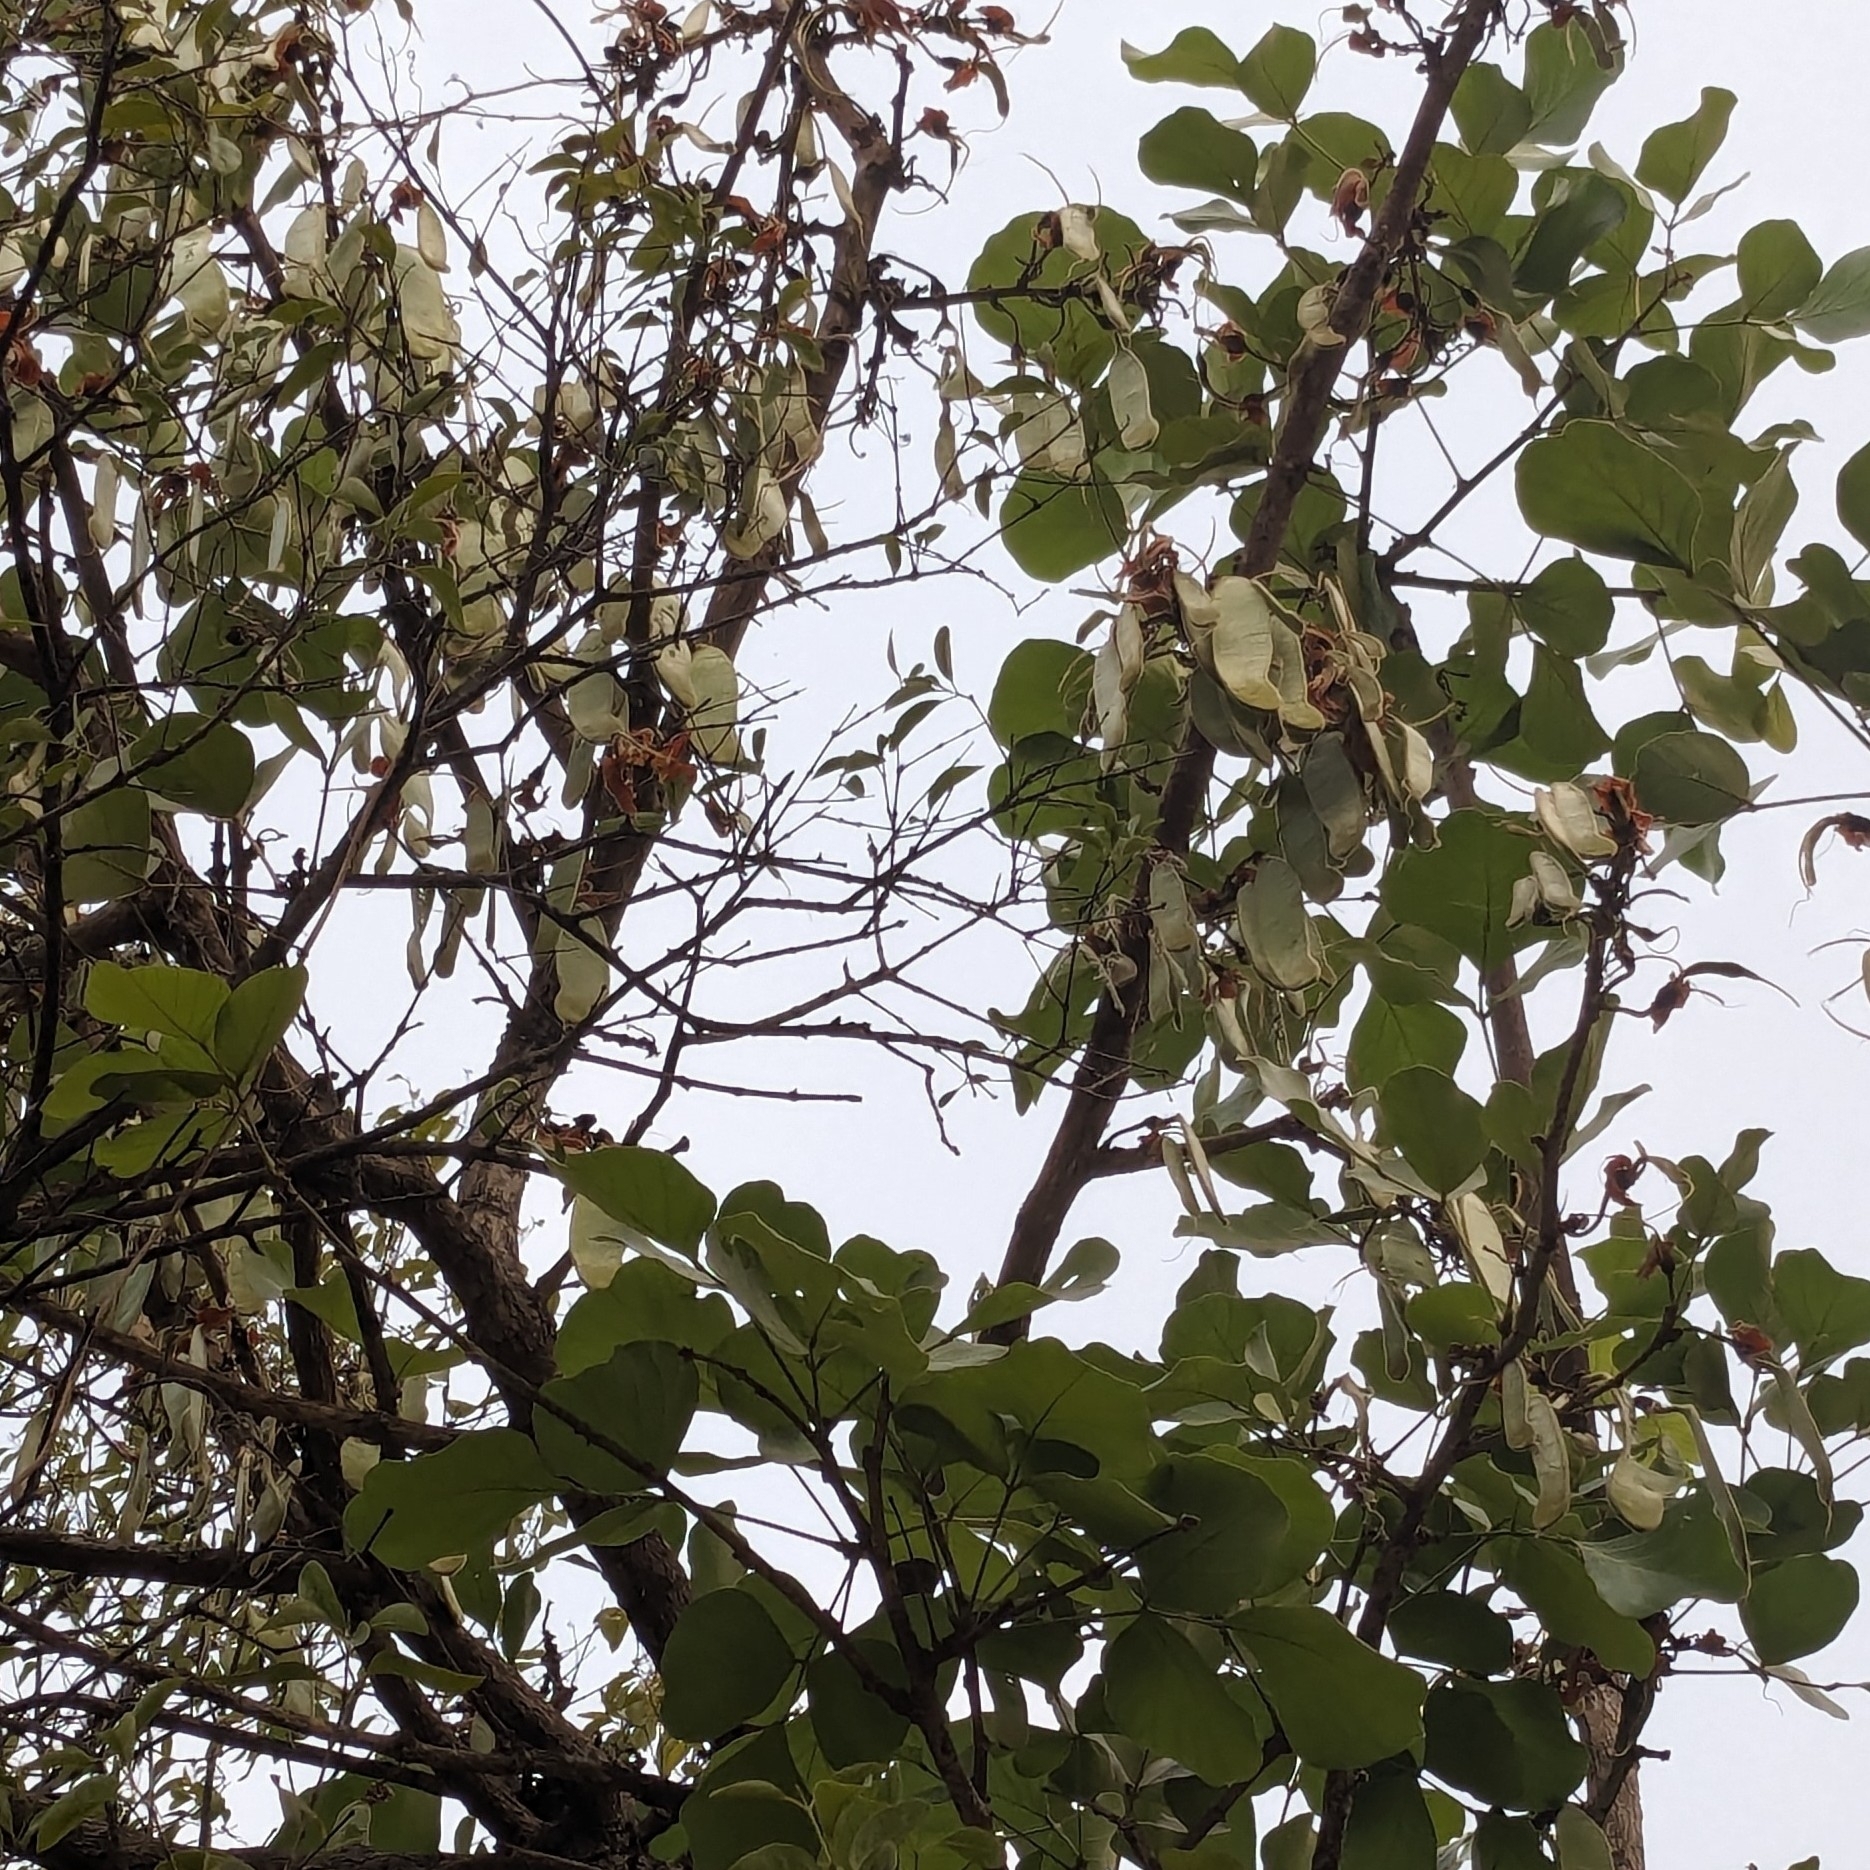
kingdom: Plantae
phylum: Tracheophyta
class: Magnoliopsida
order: Fabales
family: Fabaceae
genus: Butea
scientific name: Butea monosperma
